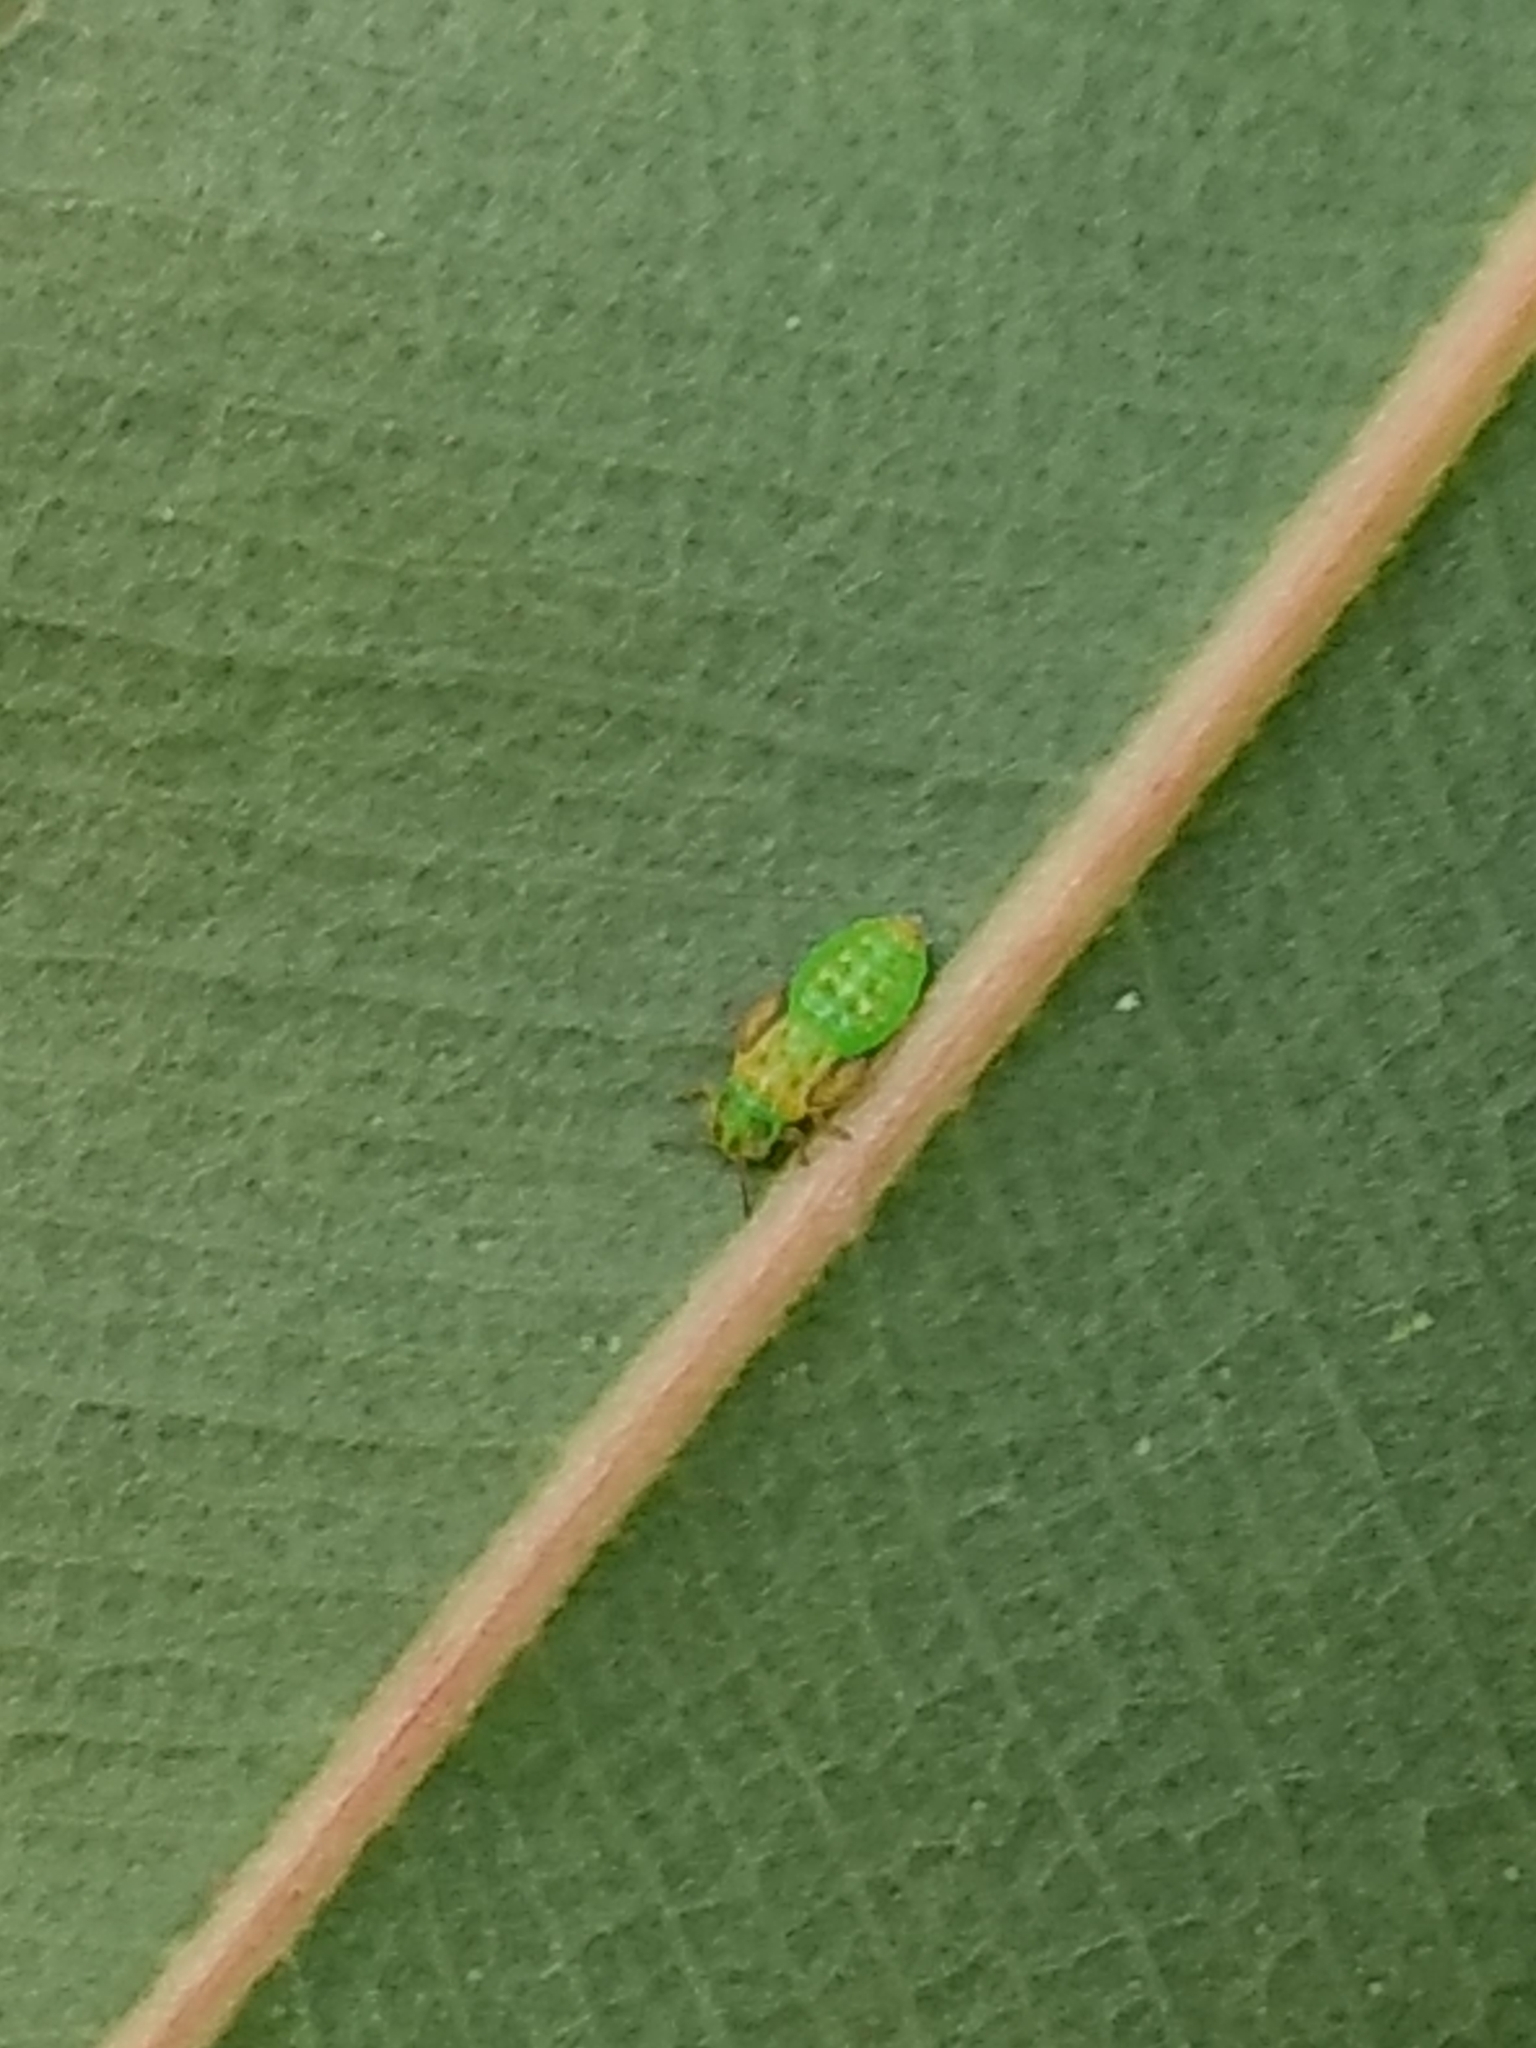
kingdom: Animalia
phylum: Arthropoda
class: Insecta
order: Hemiptera
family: Aphalaridae
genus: Eucalyptolyma
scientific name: Eucalyptolyma maideni
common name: Spotted gum lerp psyllid
